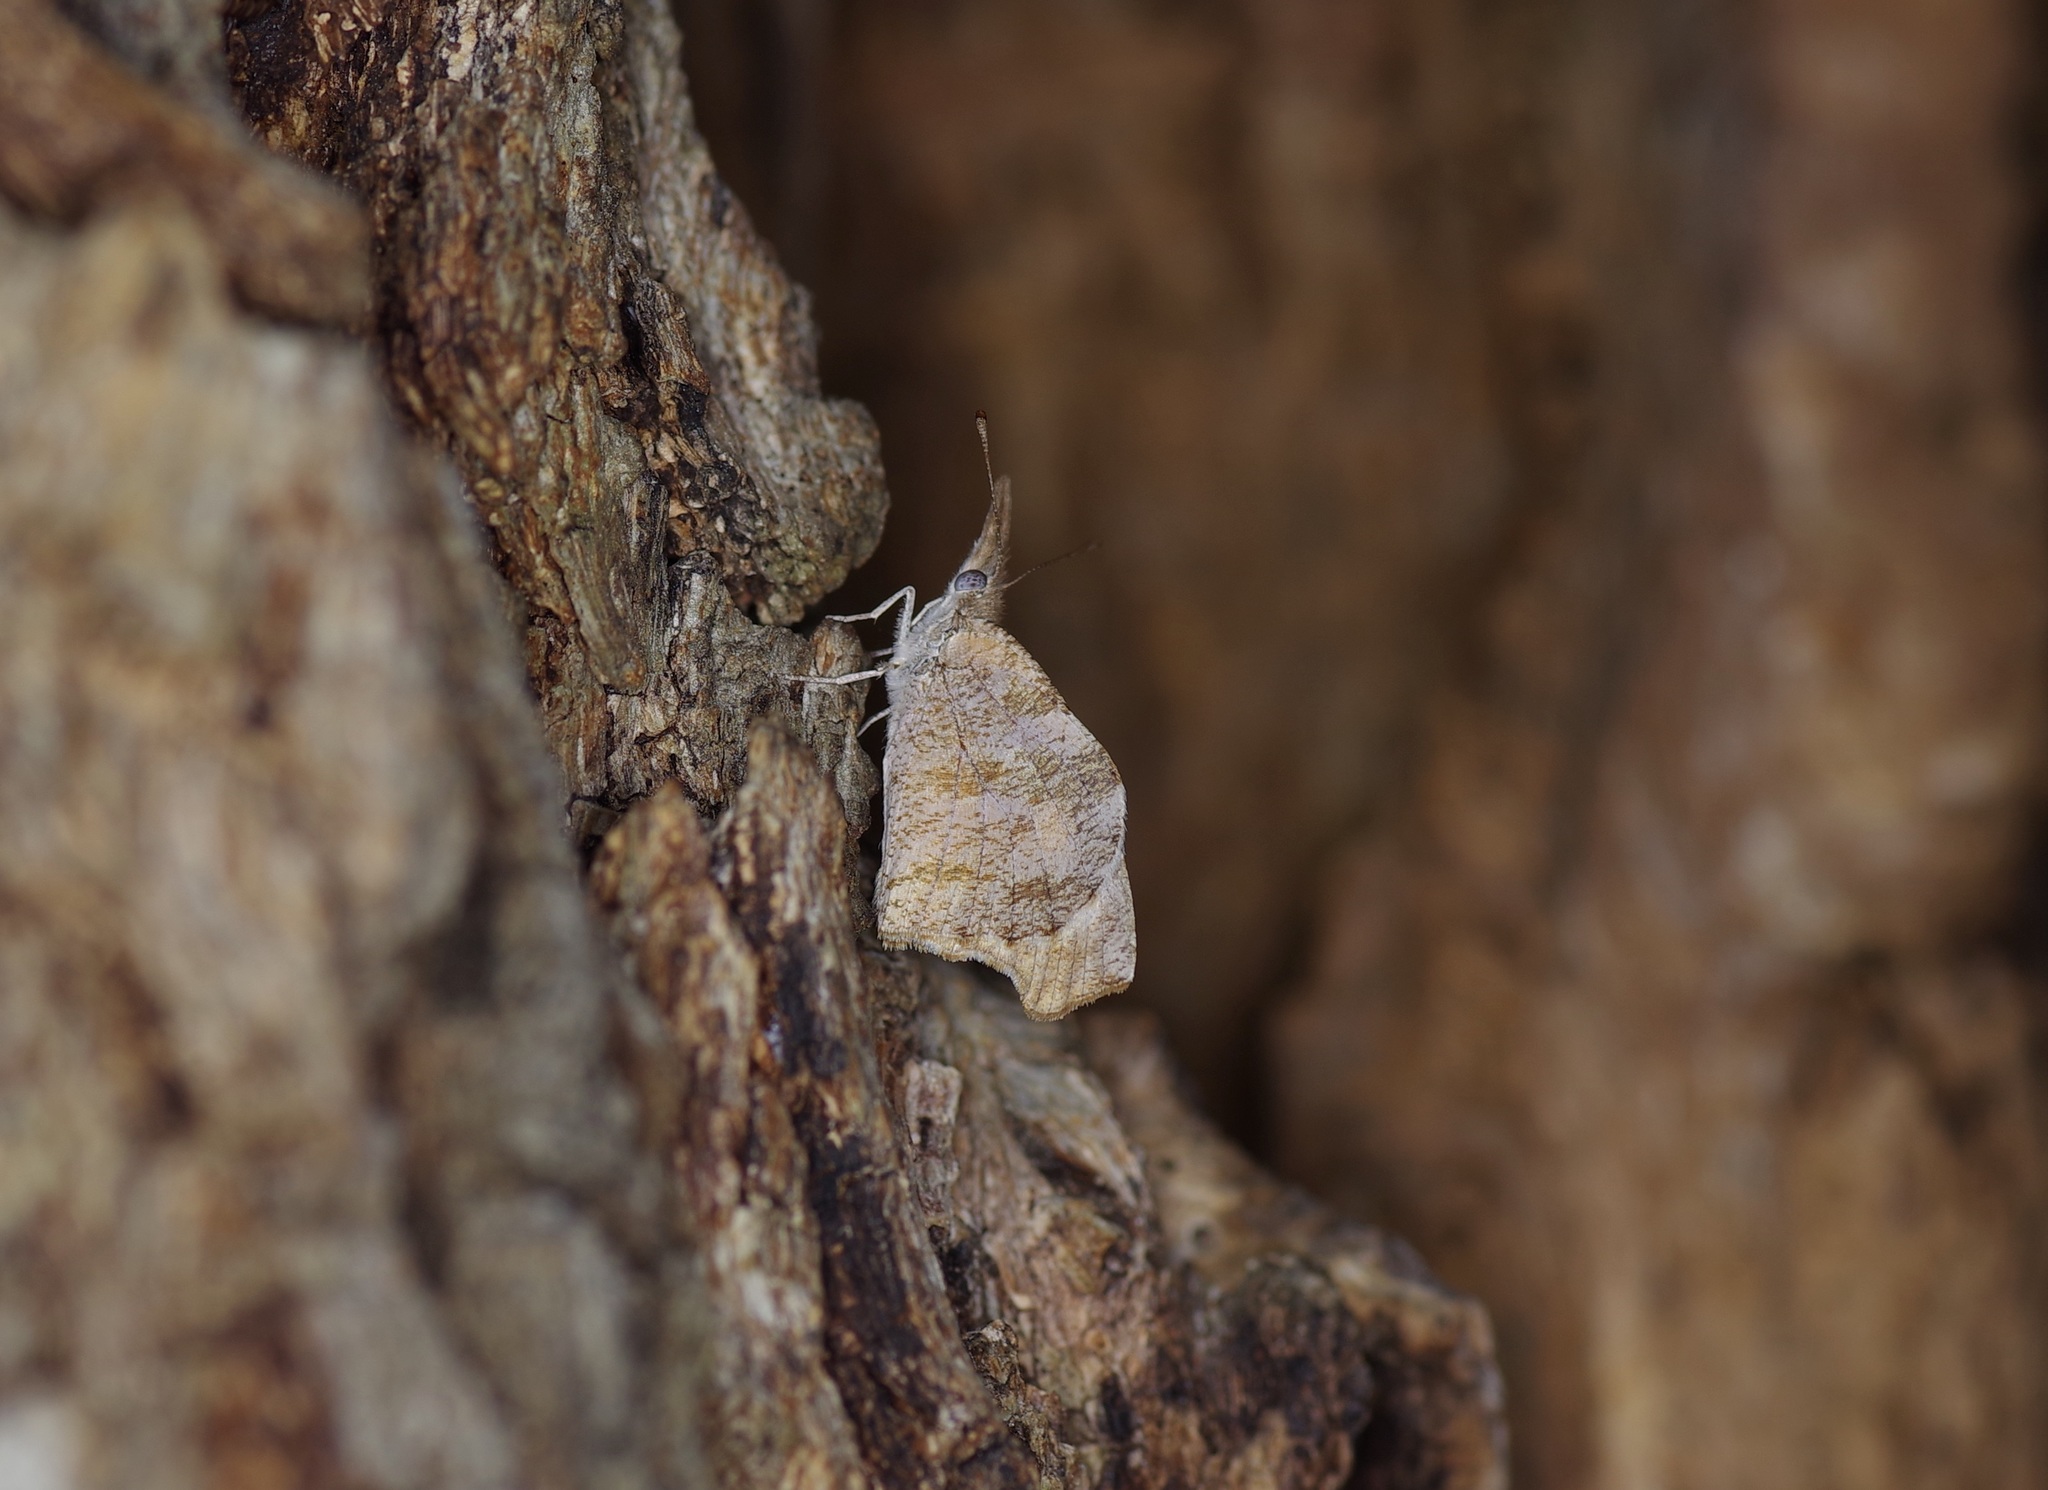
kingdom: Animalia
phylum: Arthropoda
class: Insecta
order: Lepidoptera
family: Nymphalidae
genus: Libytheana
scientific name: Libytheana carinenta
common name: American snout
